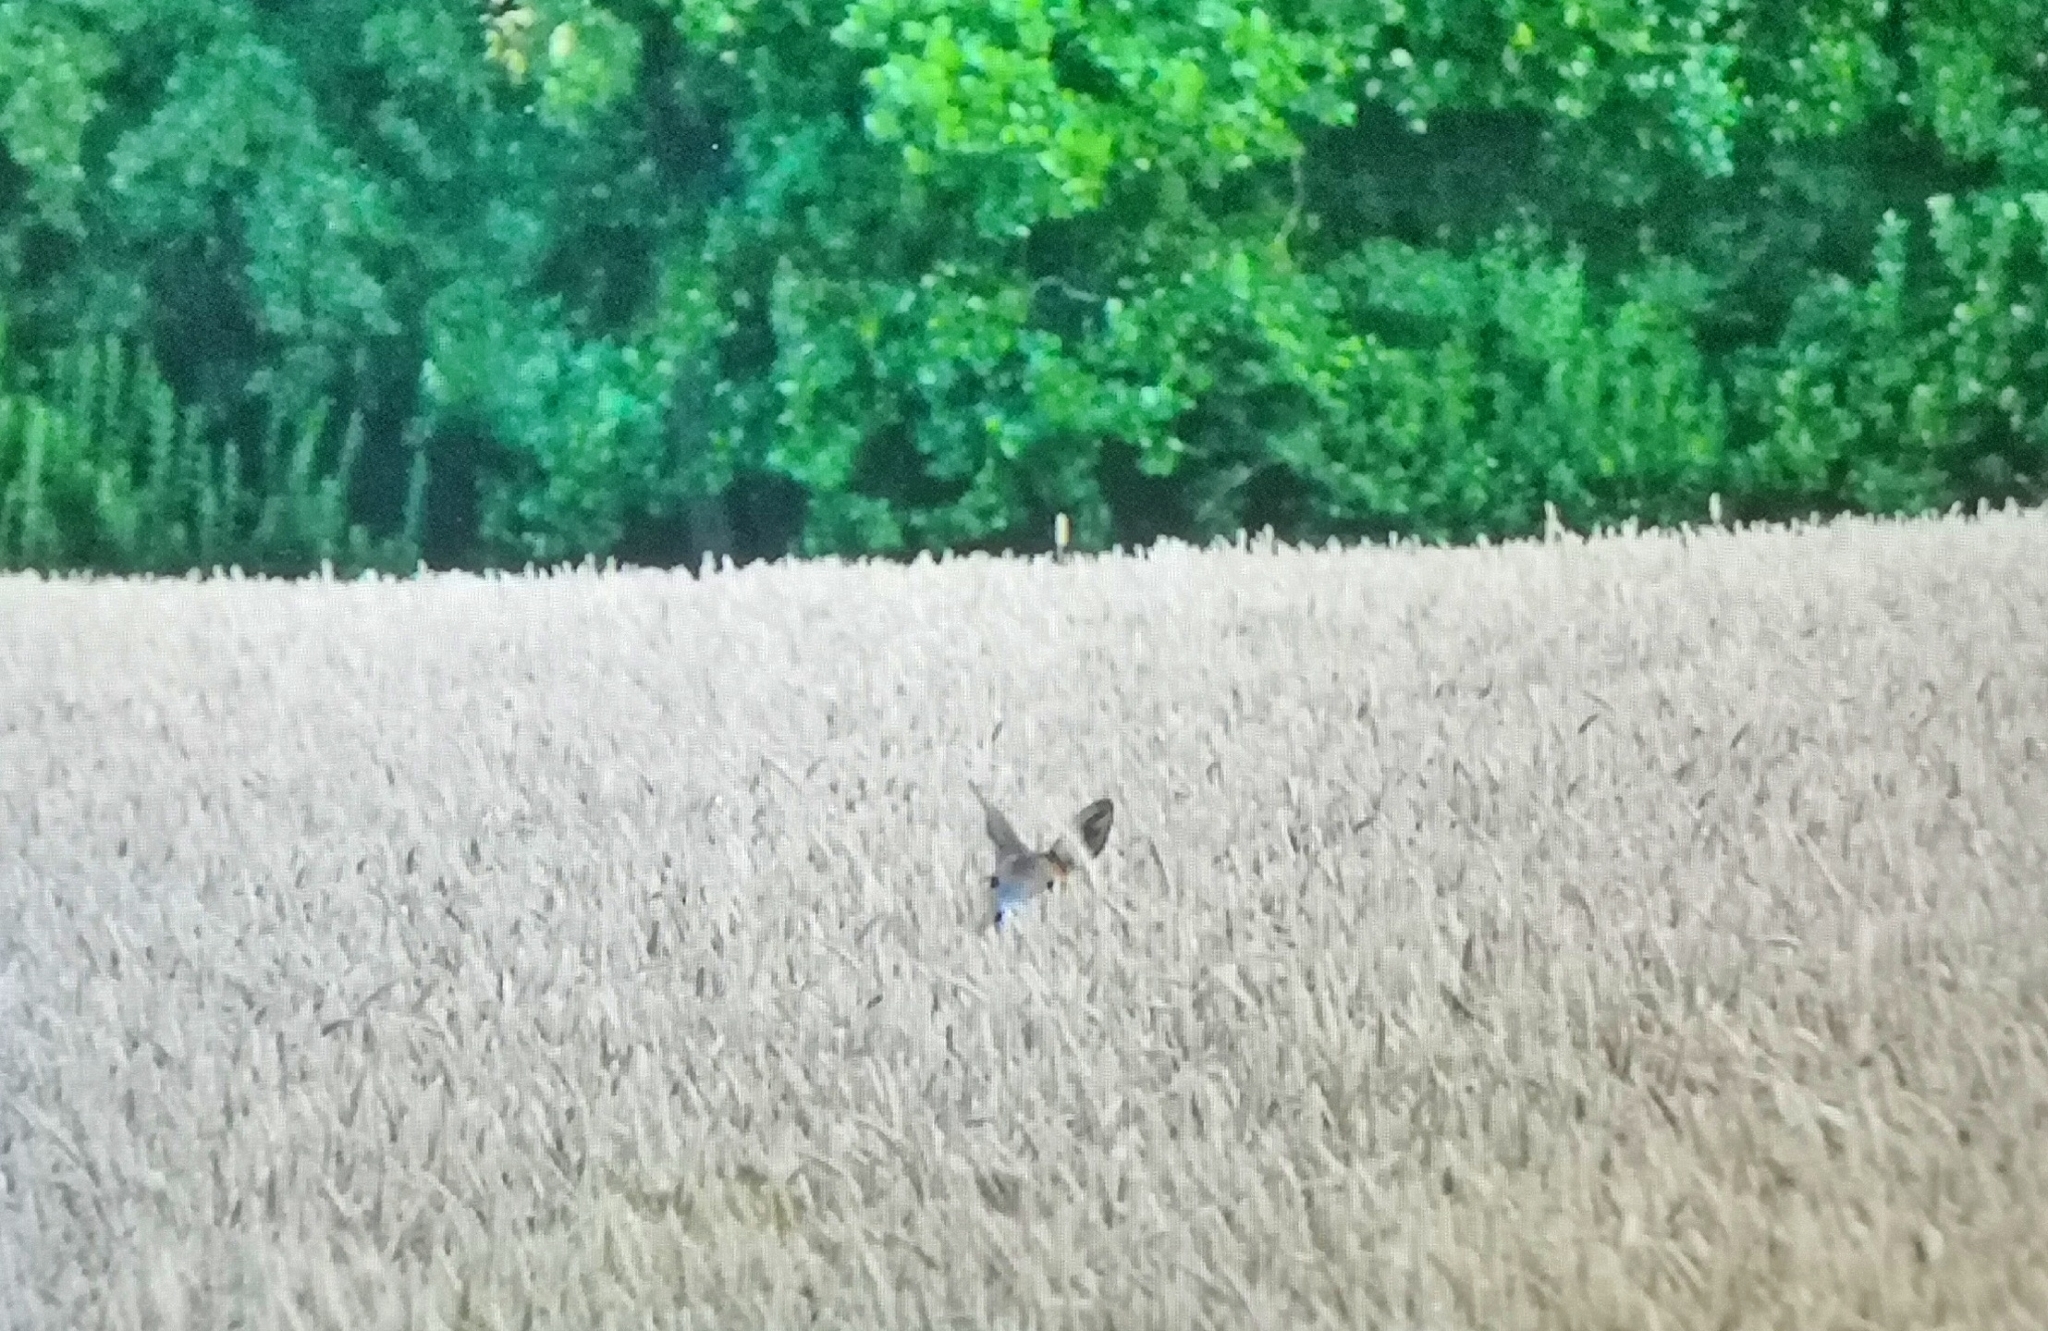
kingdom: Animalia
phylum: Chordata
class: Mammalia
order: Artiodactyla
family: Cervidae
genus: Capreolus
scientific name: Capreolus capreolus
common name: Western roe deer
